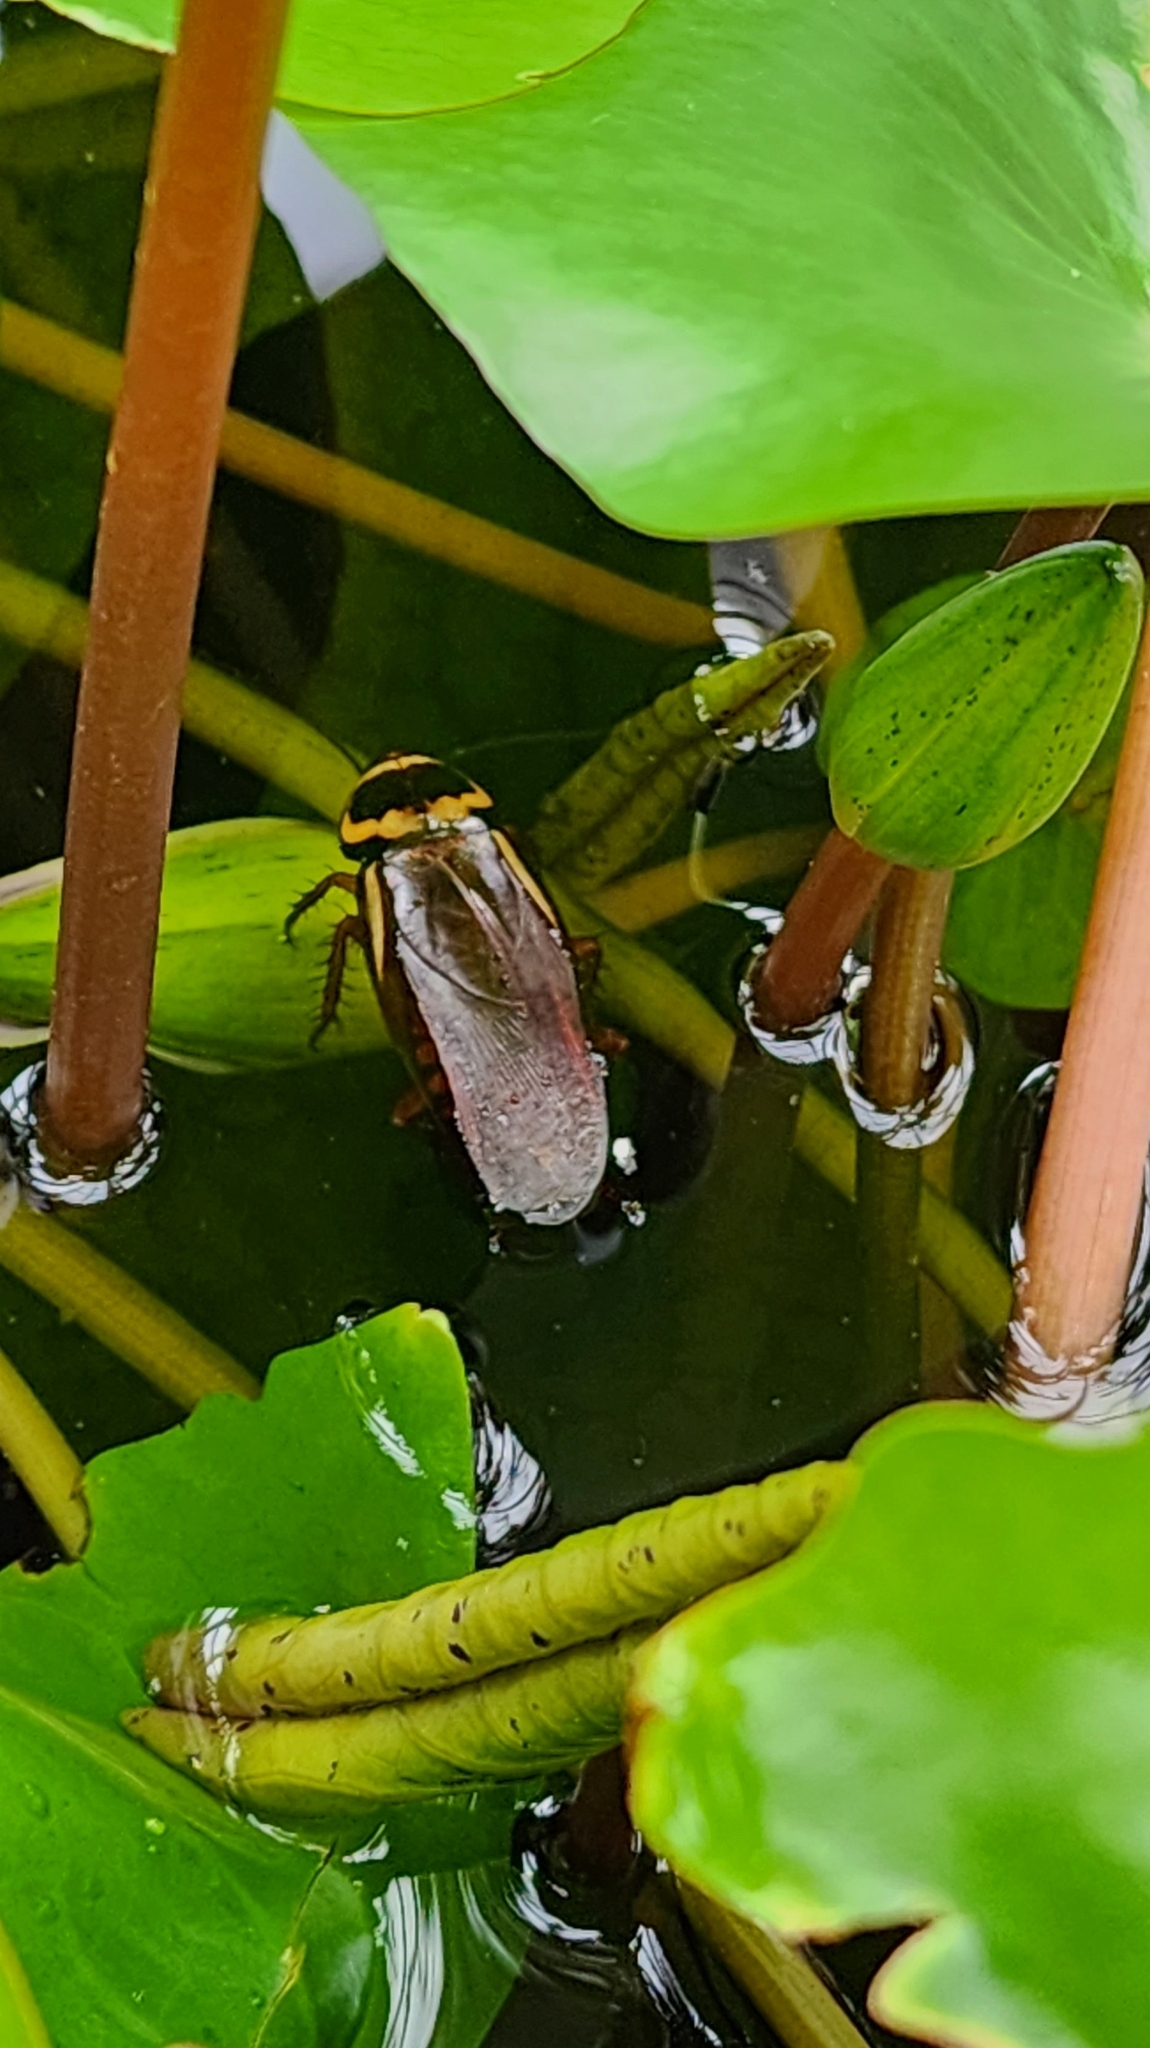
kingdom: Animalia
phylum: Arthropoda
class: Insecta
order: Blattodea
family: Blattidae
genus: Periplaneta
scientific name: Periplaneta australasiae
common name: Australian cockroach
